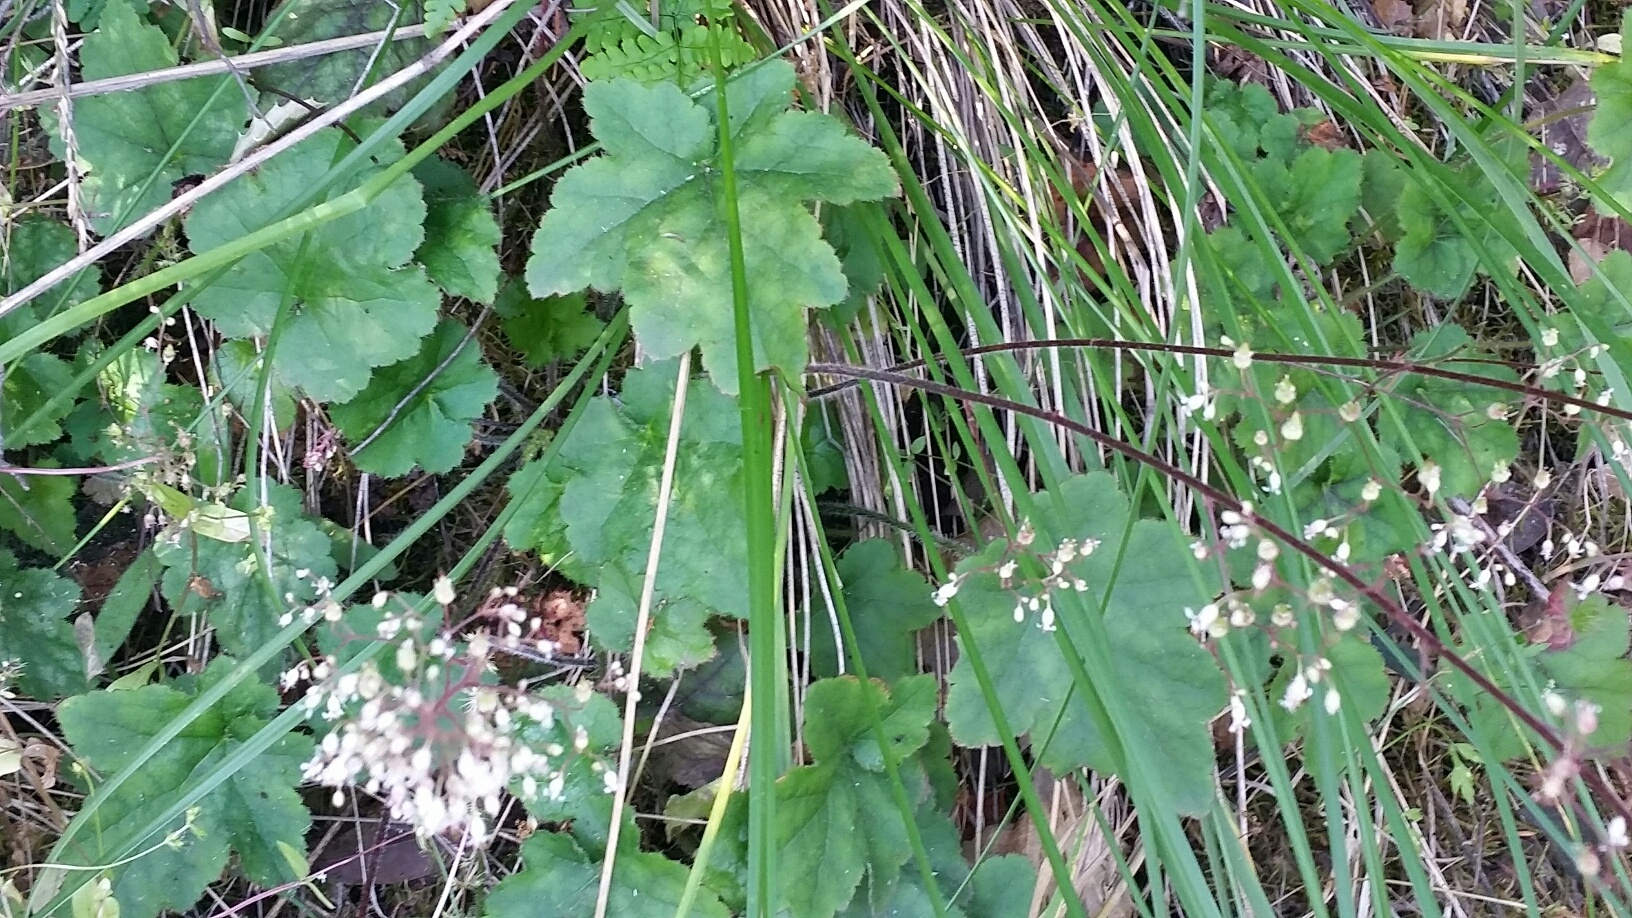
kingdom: Plantae
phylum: Tracheophyta
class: Magnoliopsida
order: Saxifragales
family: Saxifragaceae
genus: Heuchera
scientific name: Heuchera micrantha
